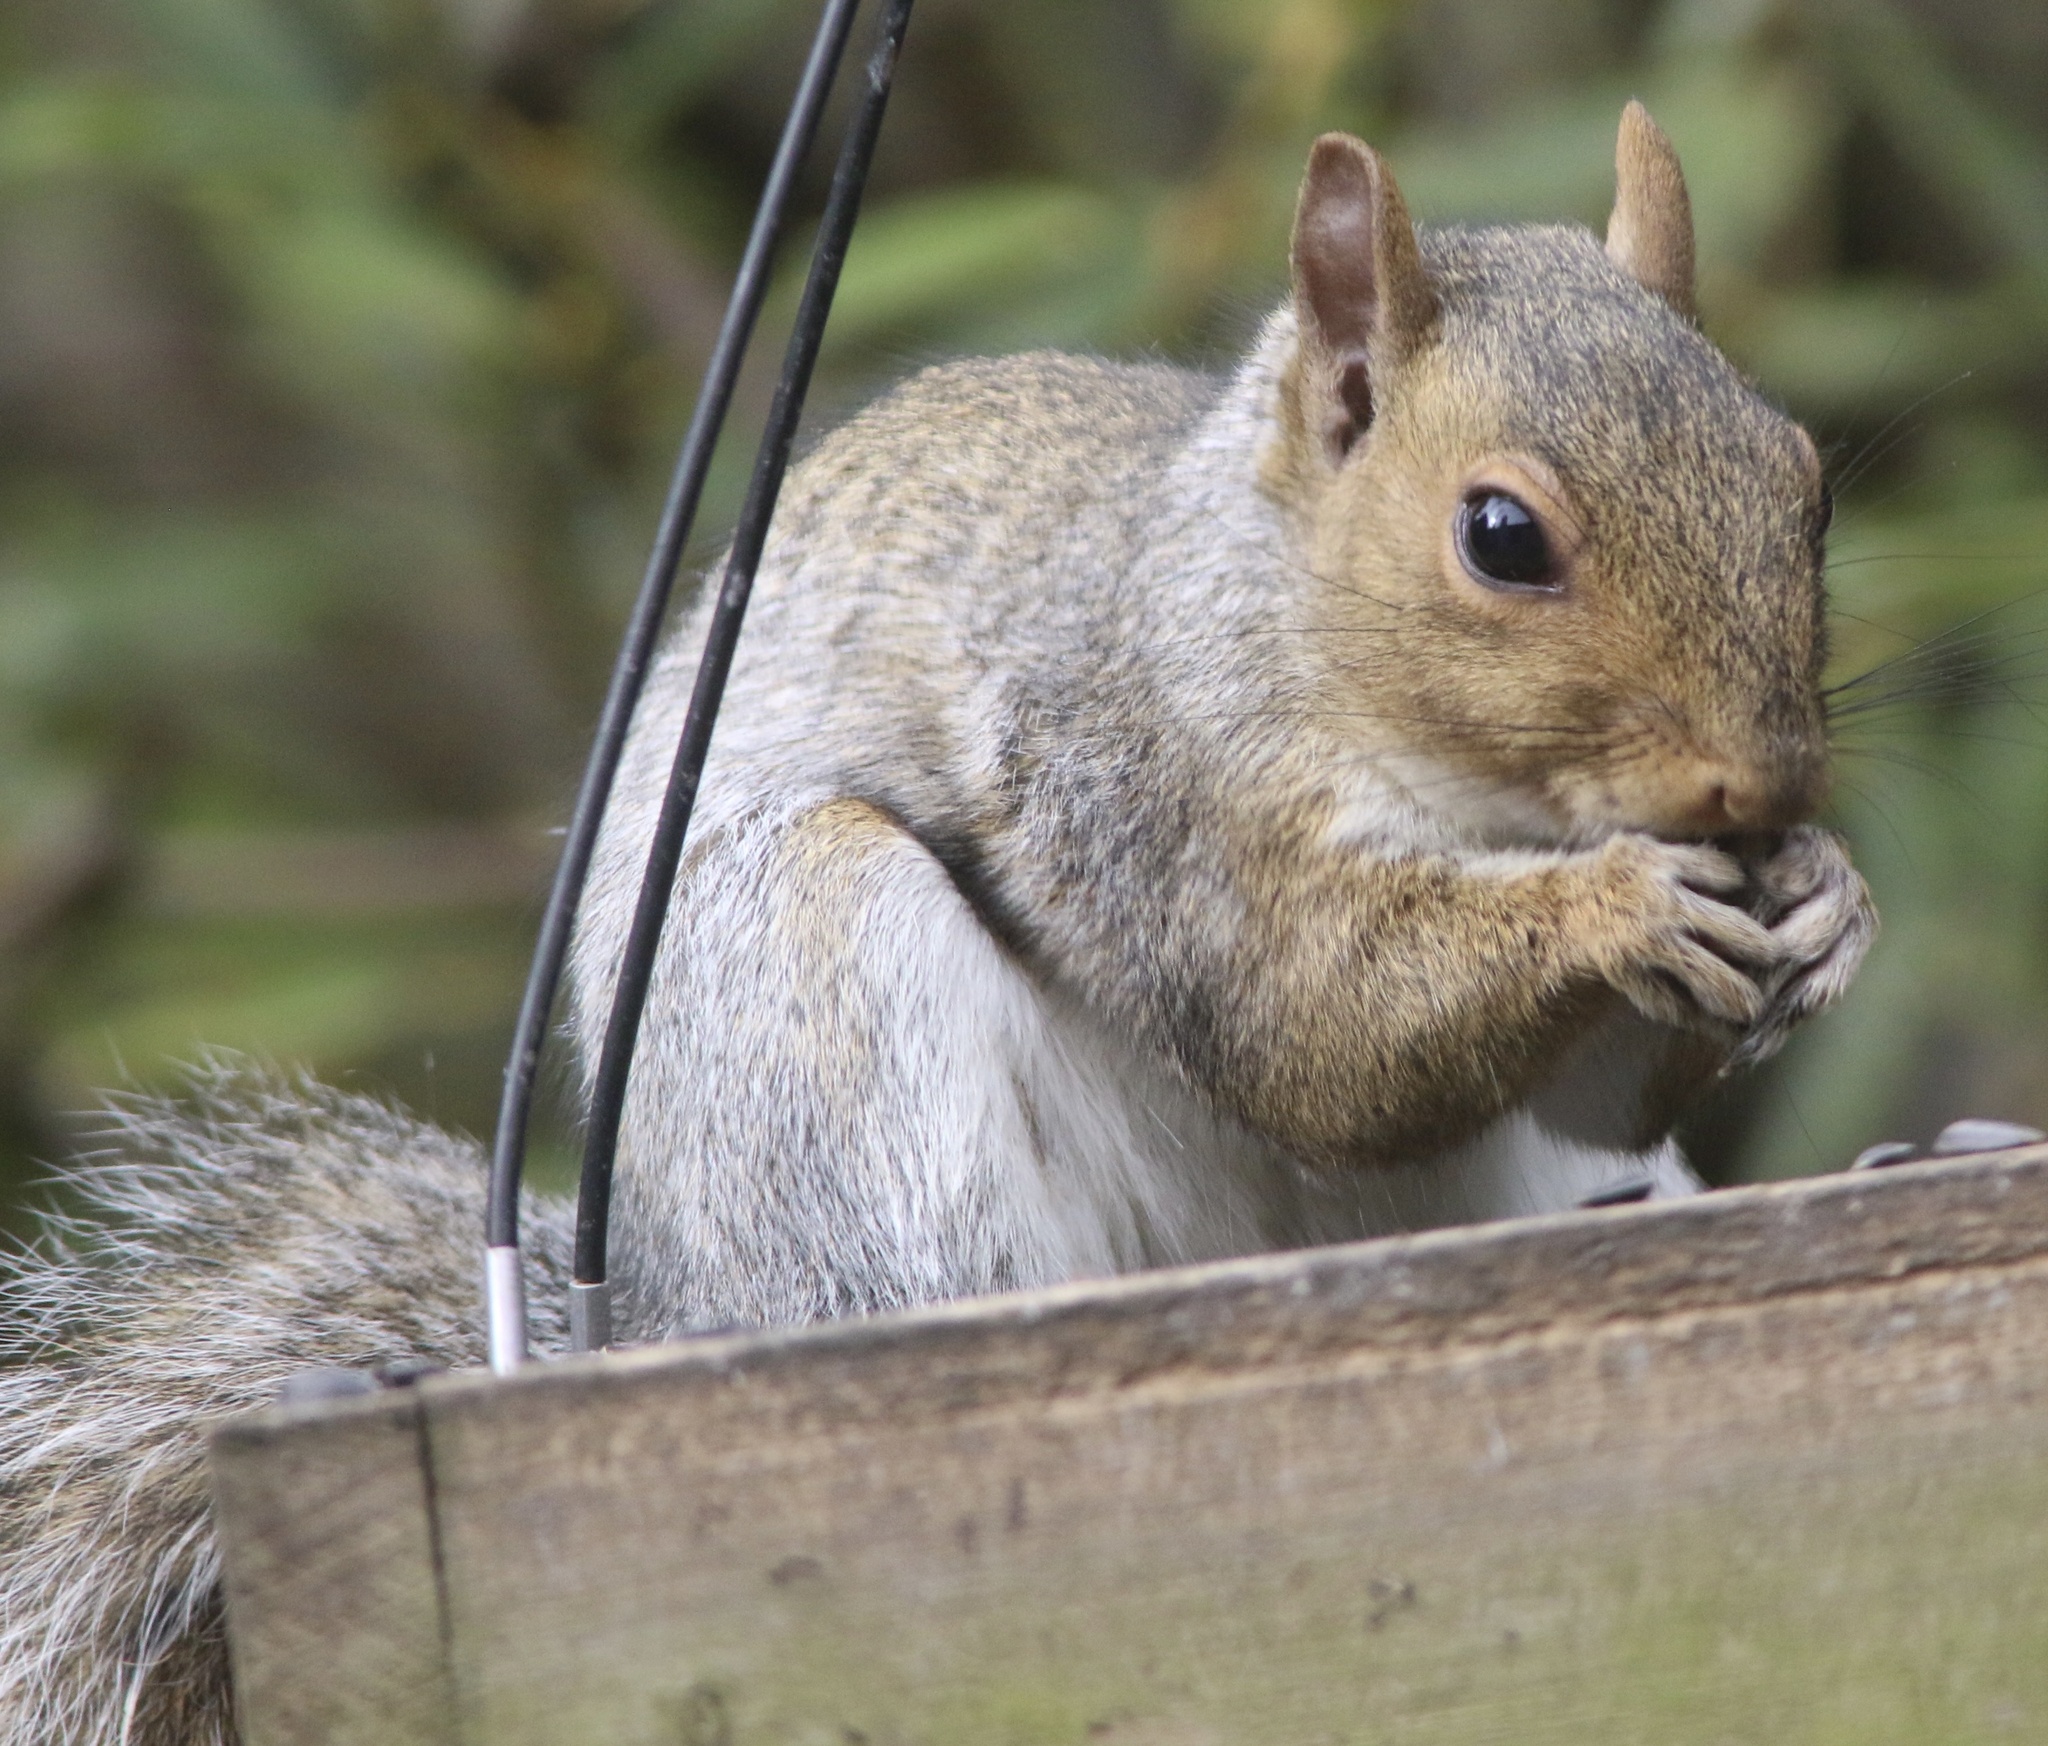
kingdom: Animalia
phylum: Chordata
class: Mammalia
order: Rodentia
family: Sciuridae
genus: Sciurus
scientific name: Sciurus carolinensis
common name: Eastern gray squirrel
